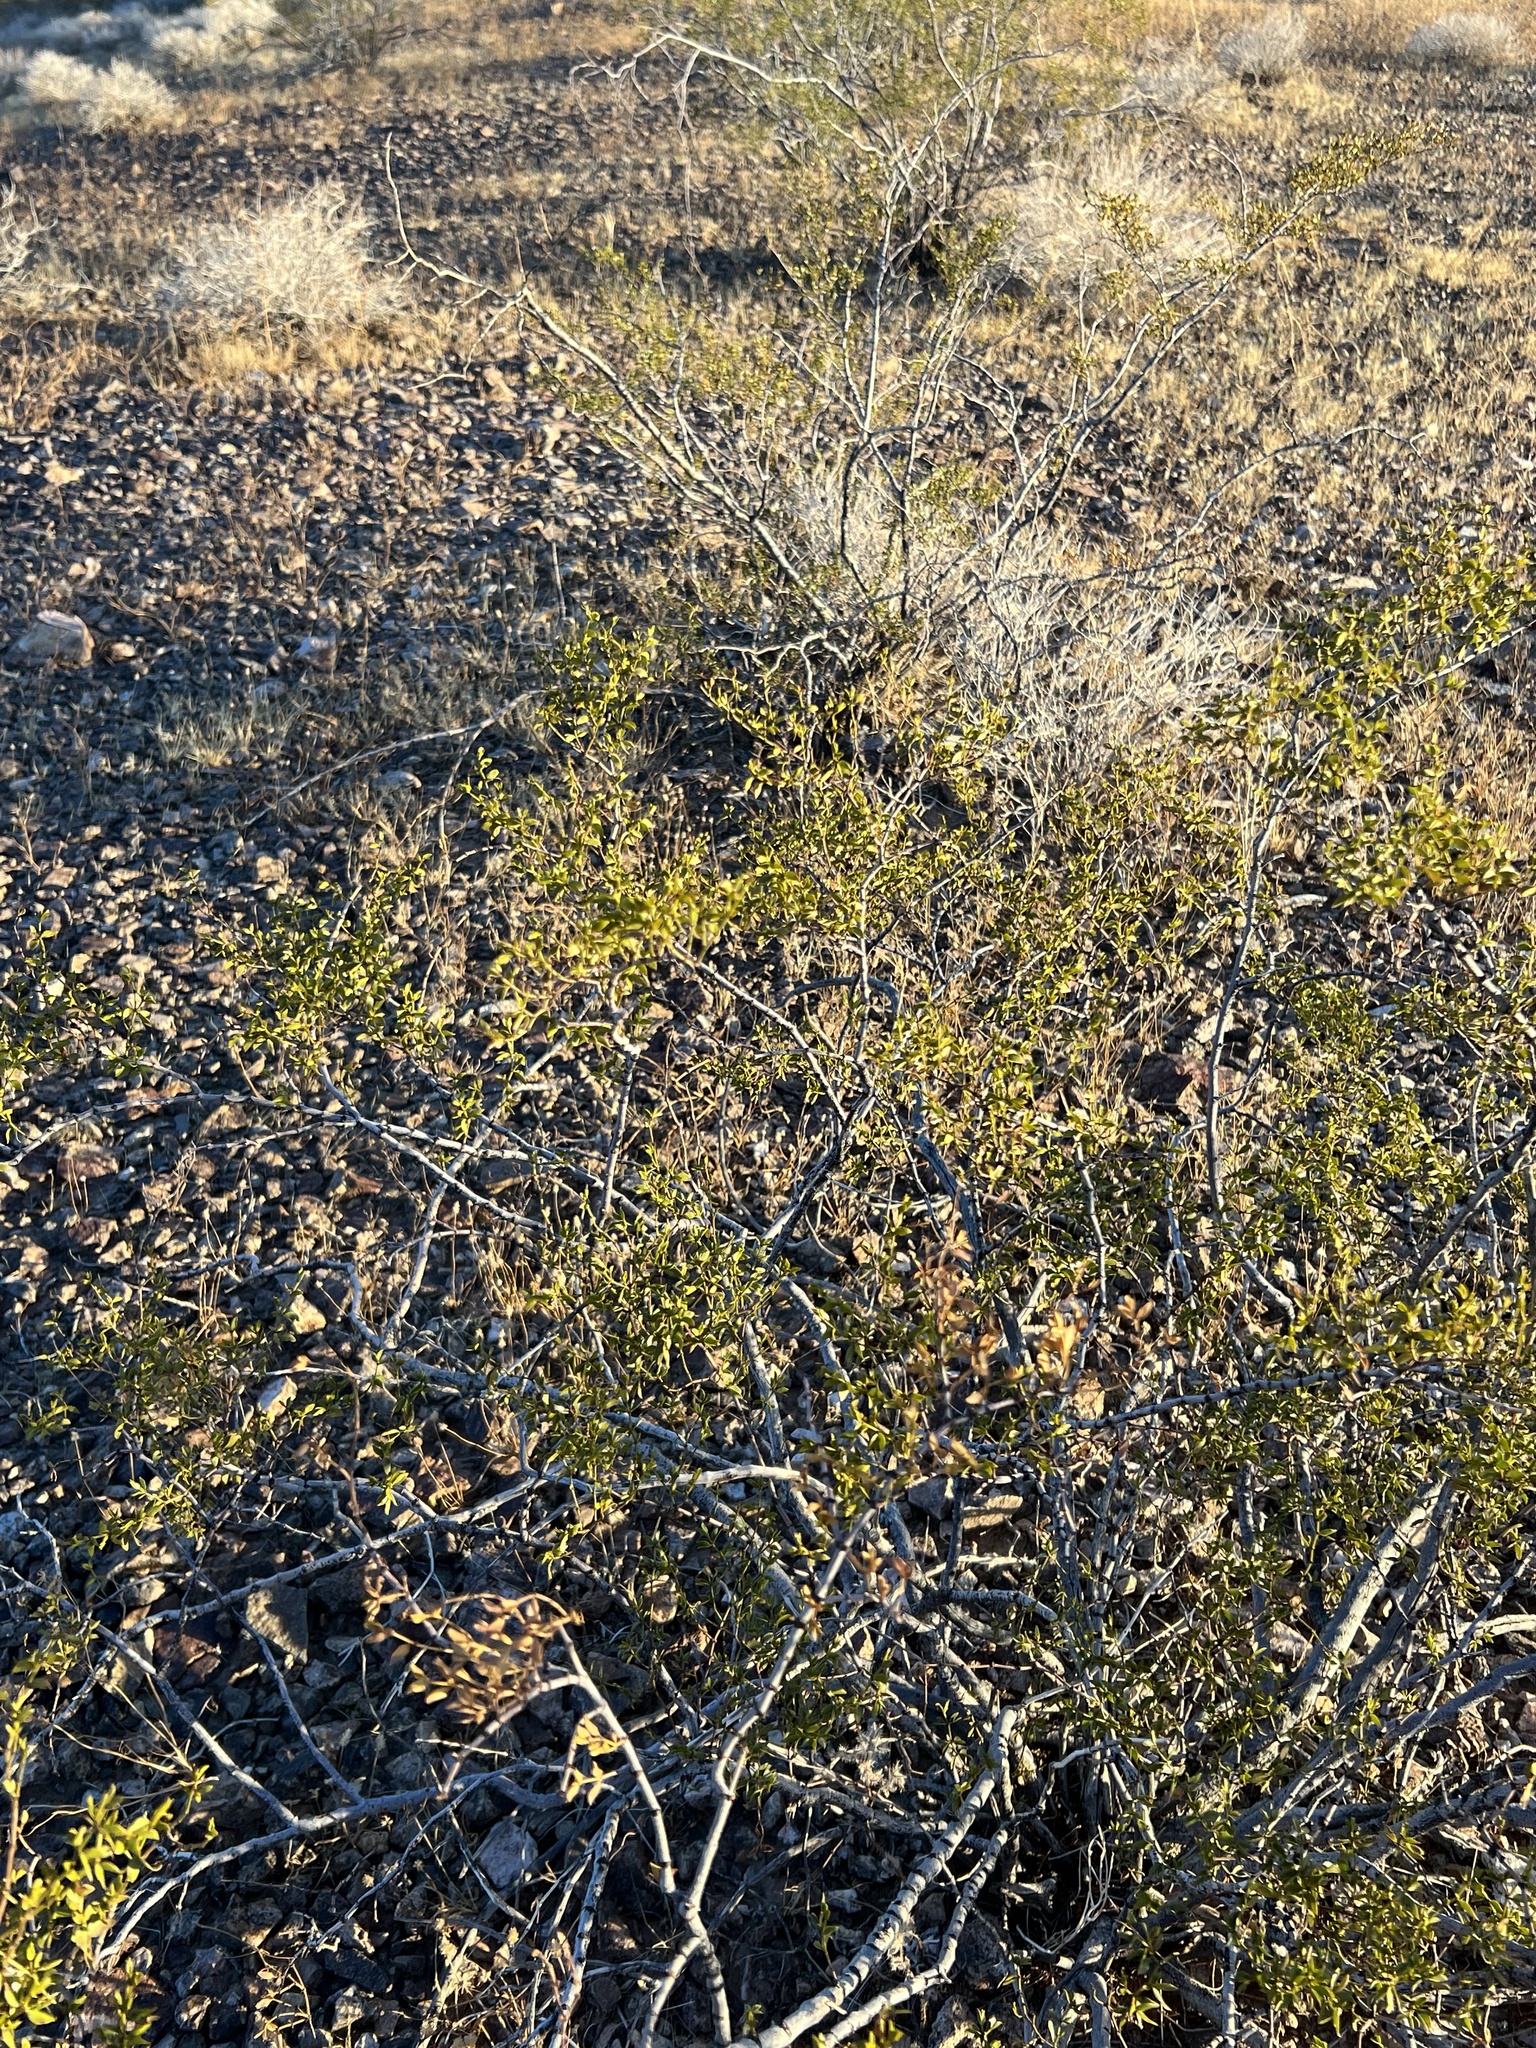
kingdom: Plantae
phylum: Tracheophyta
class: Magnoliopsida
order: Zygophyllales
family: Zygophyllaceae
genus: Larrea
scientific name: Larrea tridentata
